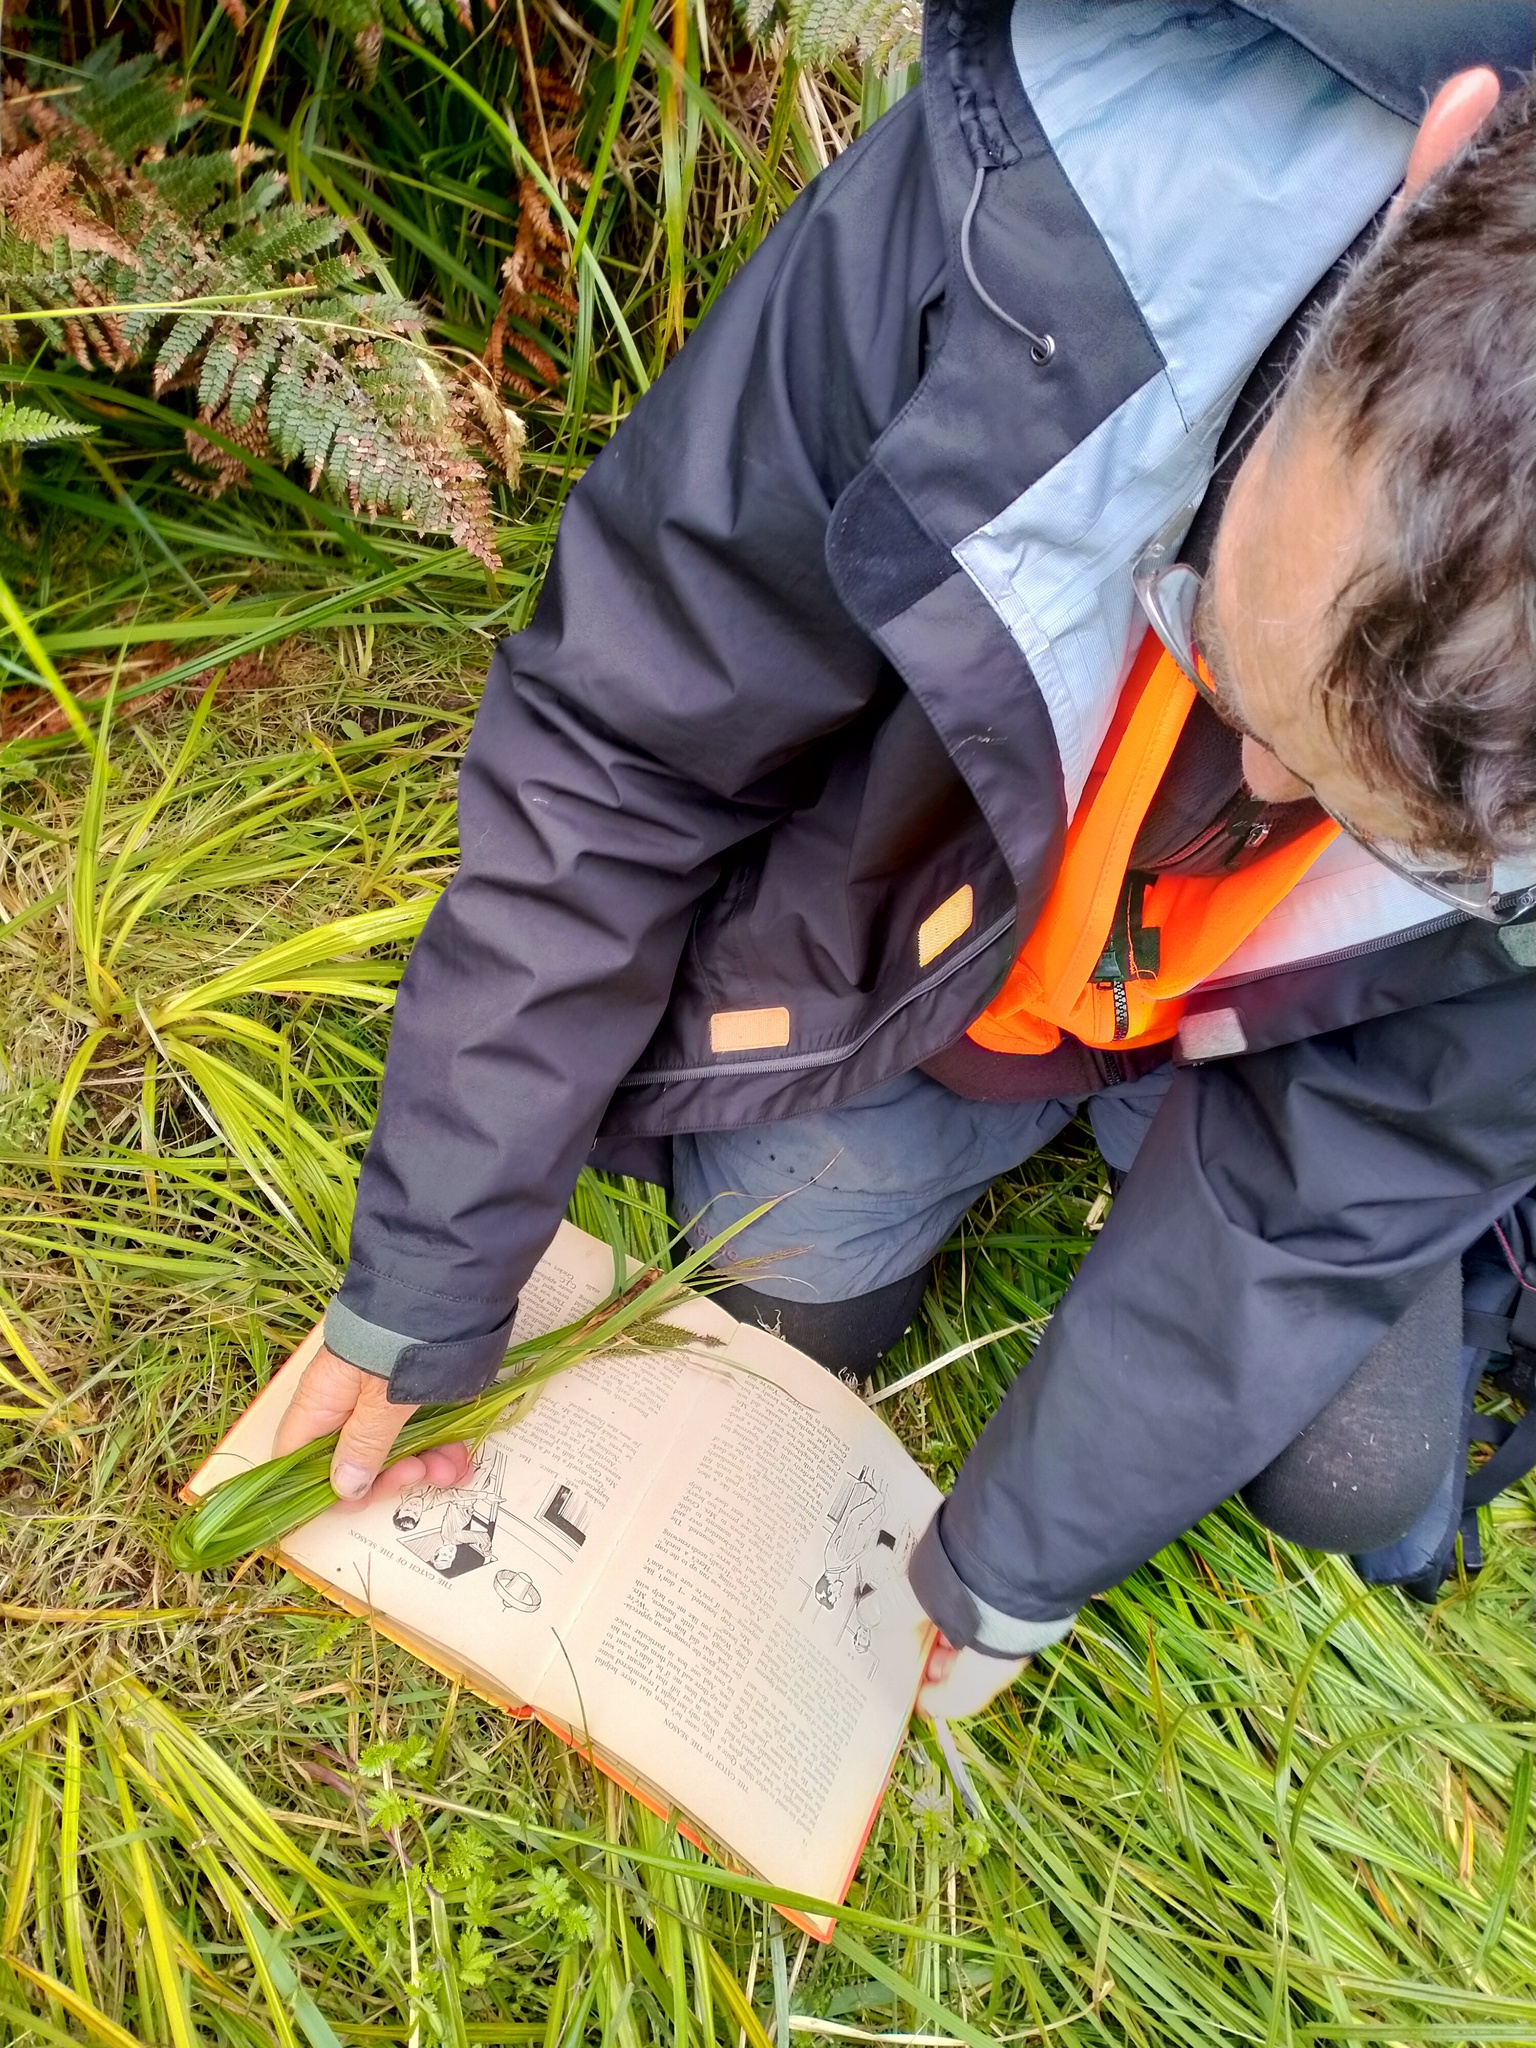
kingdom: Plantae
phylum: Tracheophyta
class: Liliopsida
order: Poales
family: Cyperaceae
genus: Carex
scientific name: Carex appressa
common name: Tussock sedge
